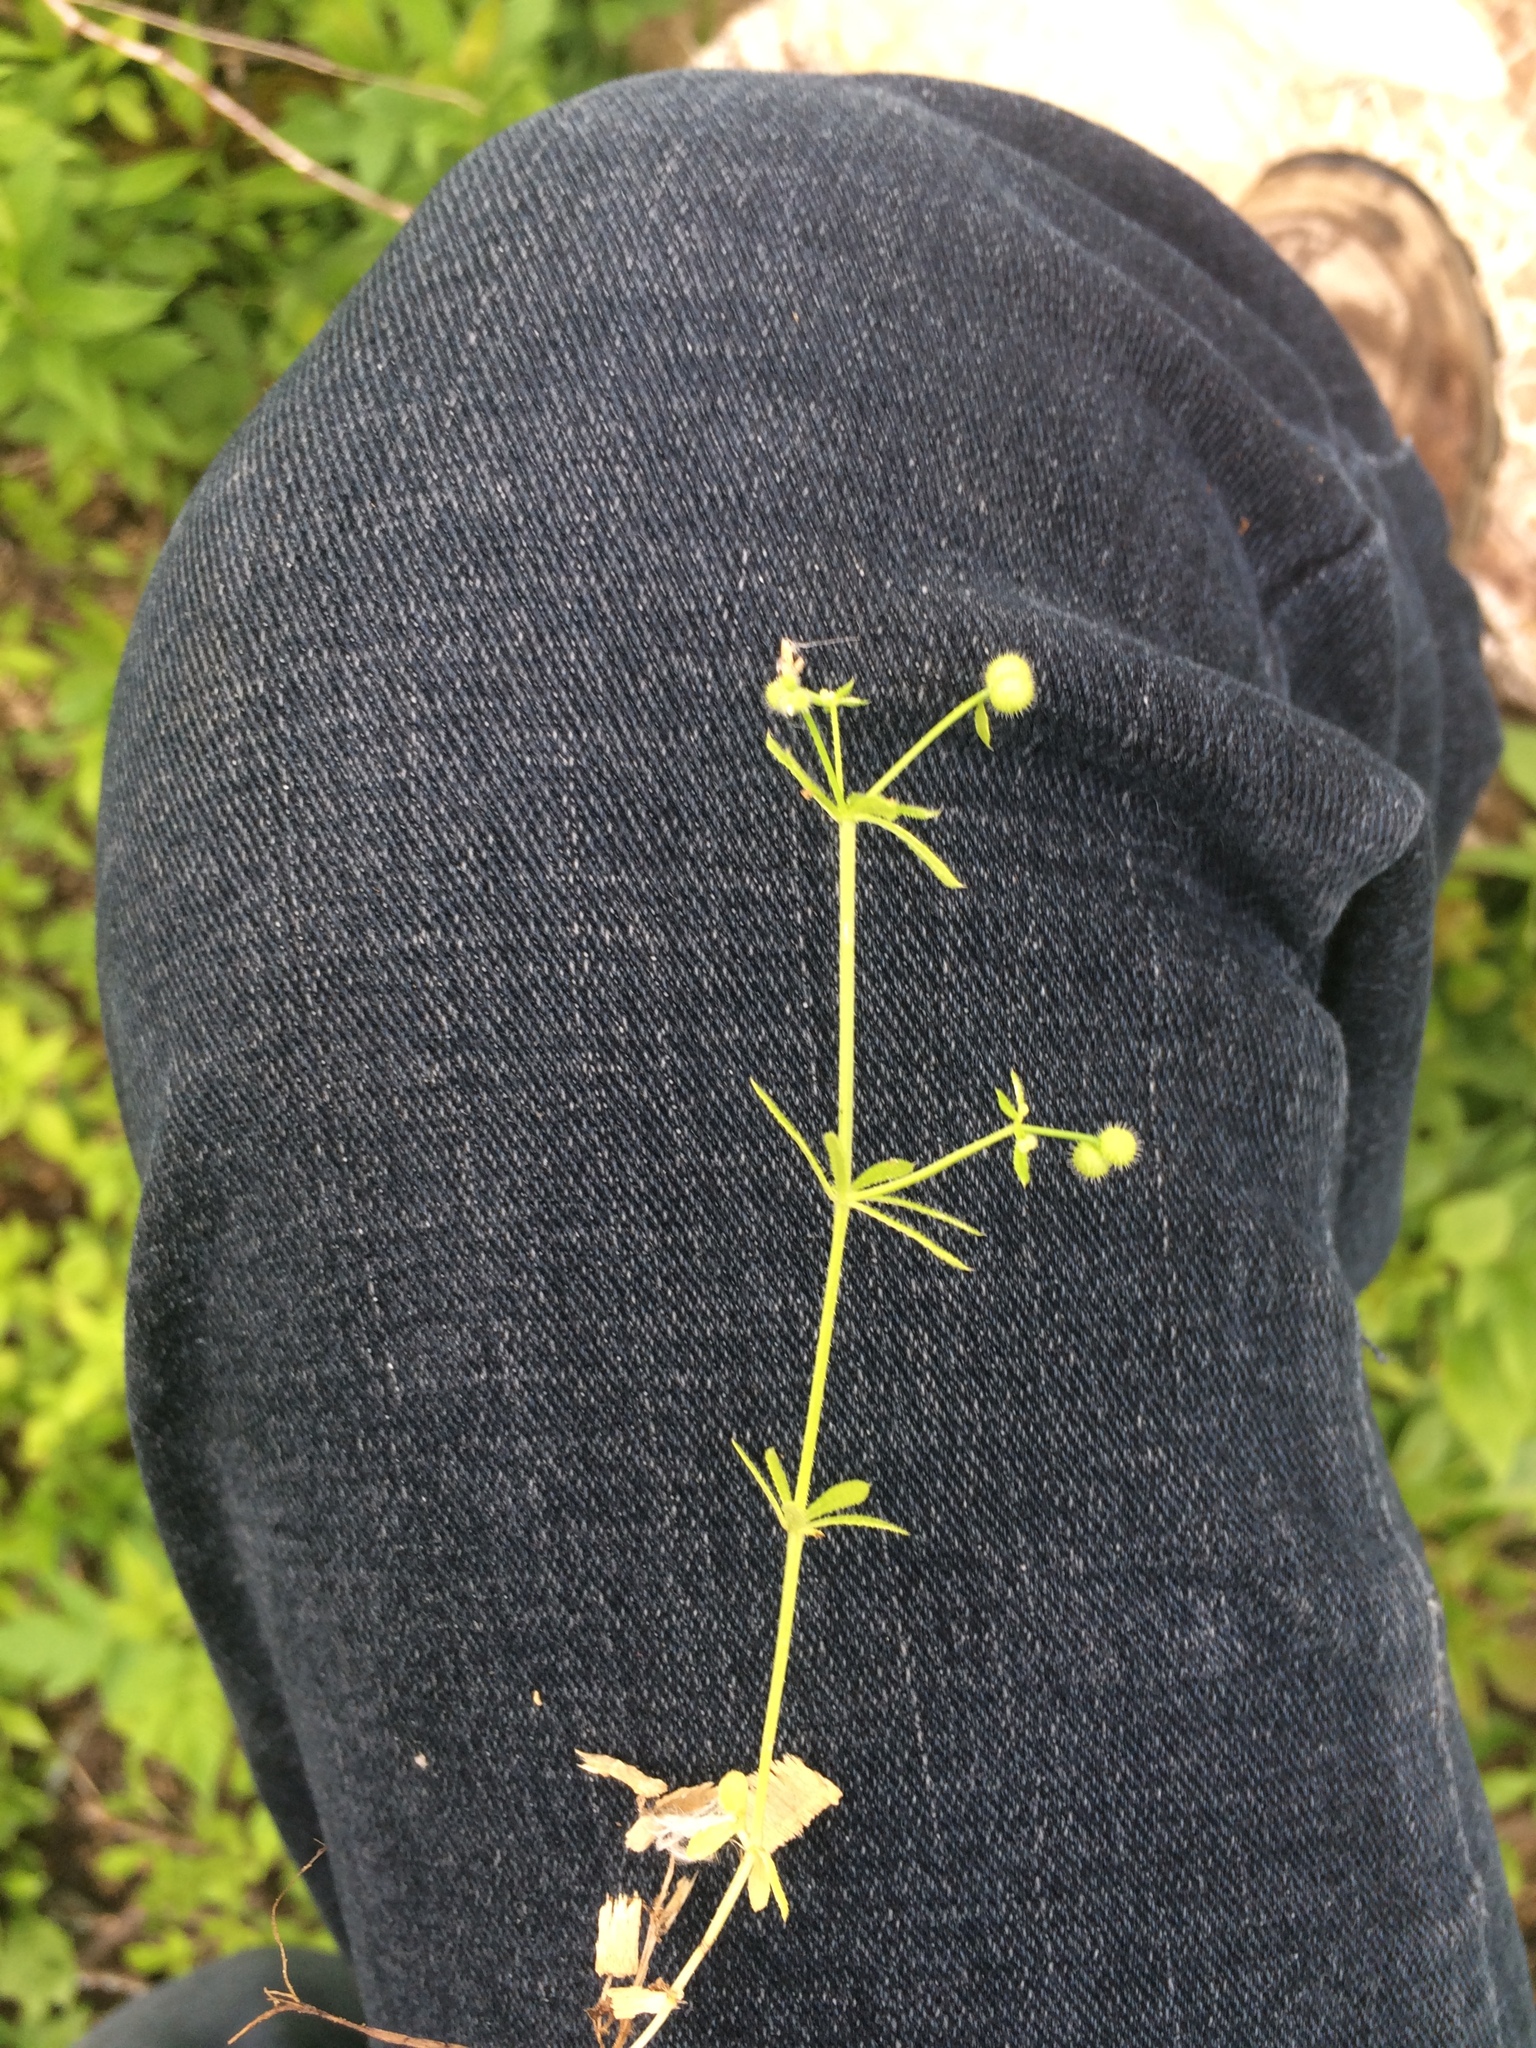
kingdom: Plantae
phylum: Tracheophyta
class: Magnoliopsida
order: Gentianales
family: Rubiaceae
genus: Galium
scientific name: Galium aparine
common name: Cleavers
